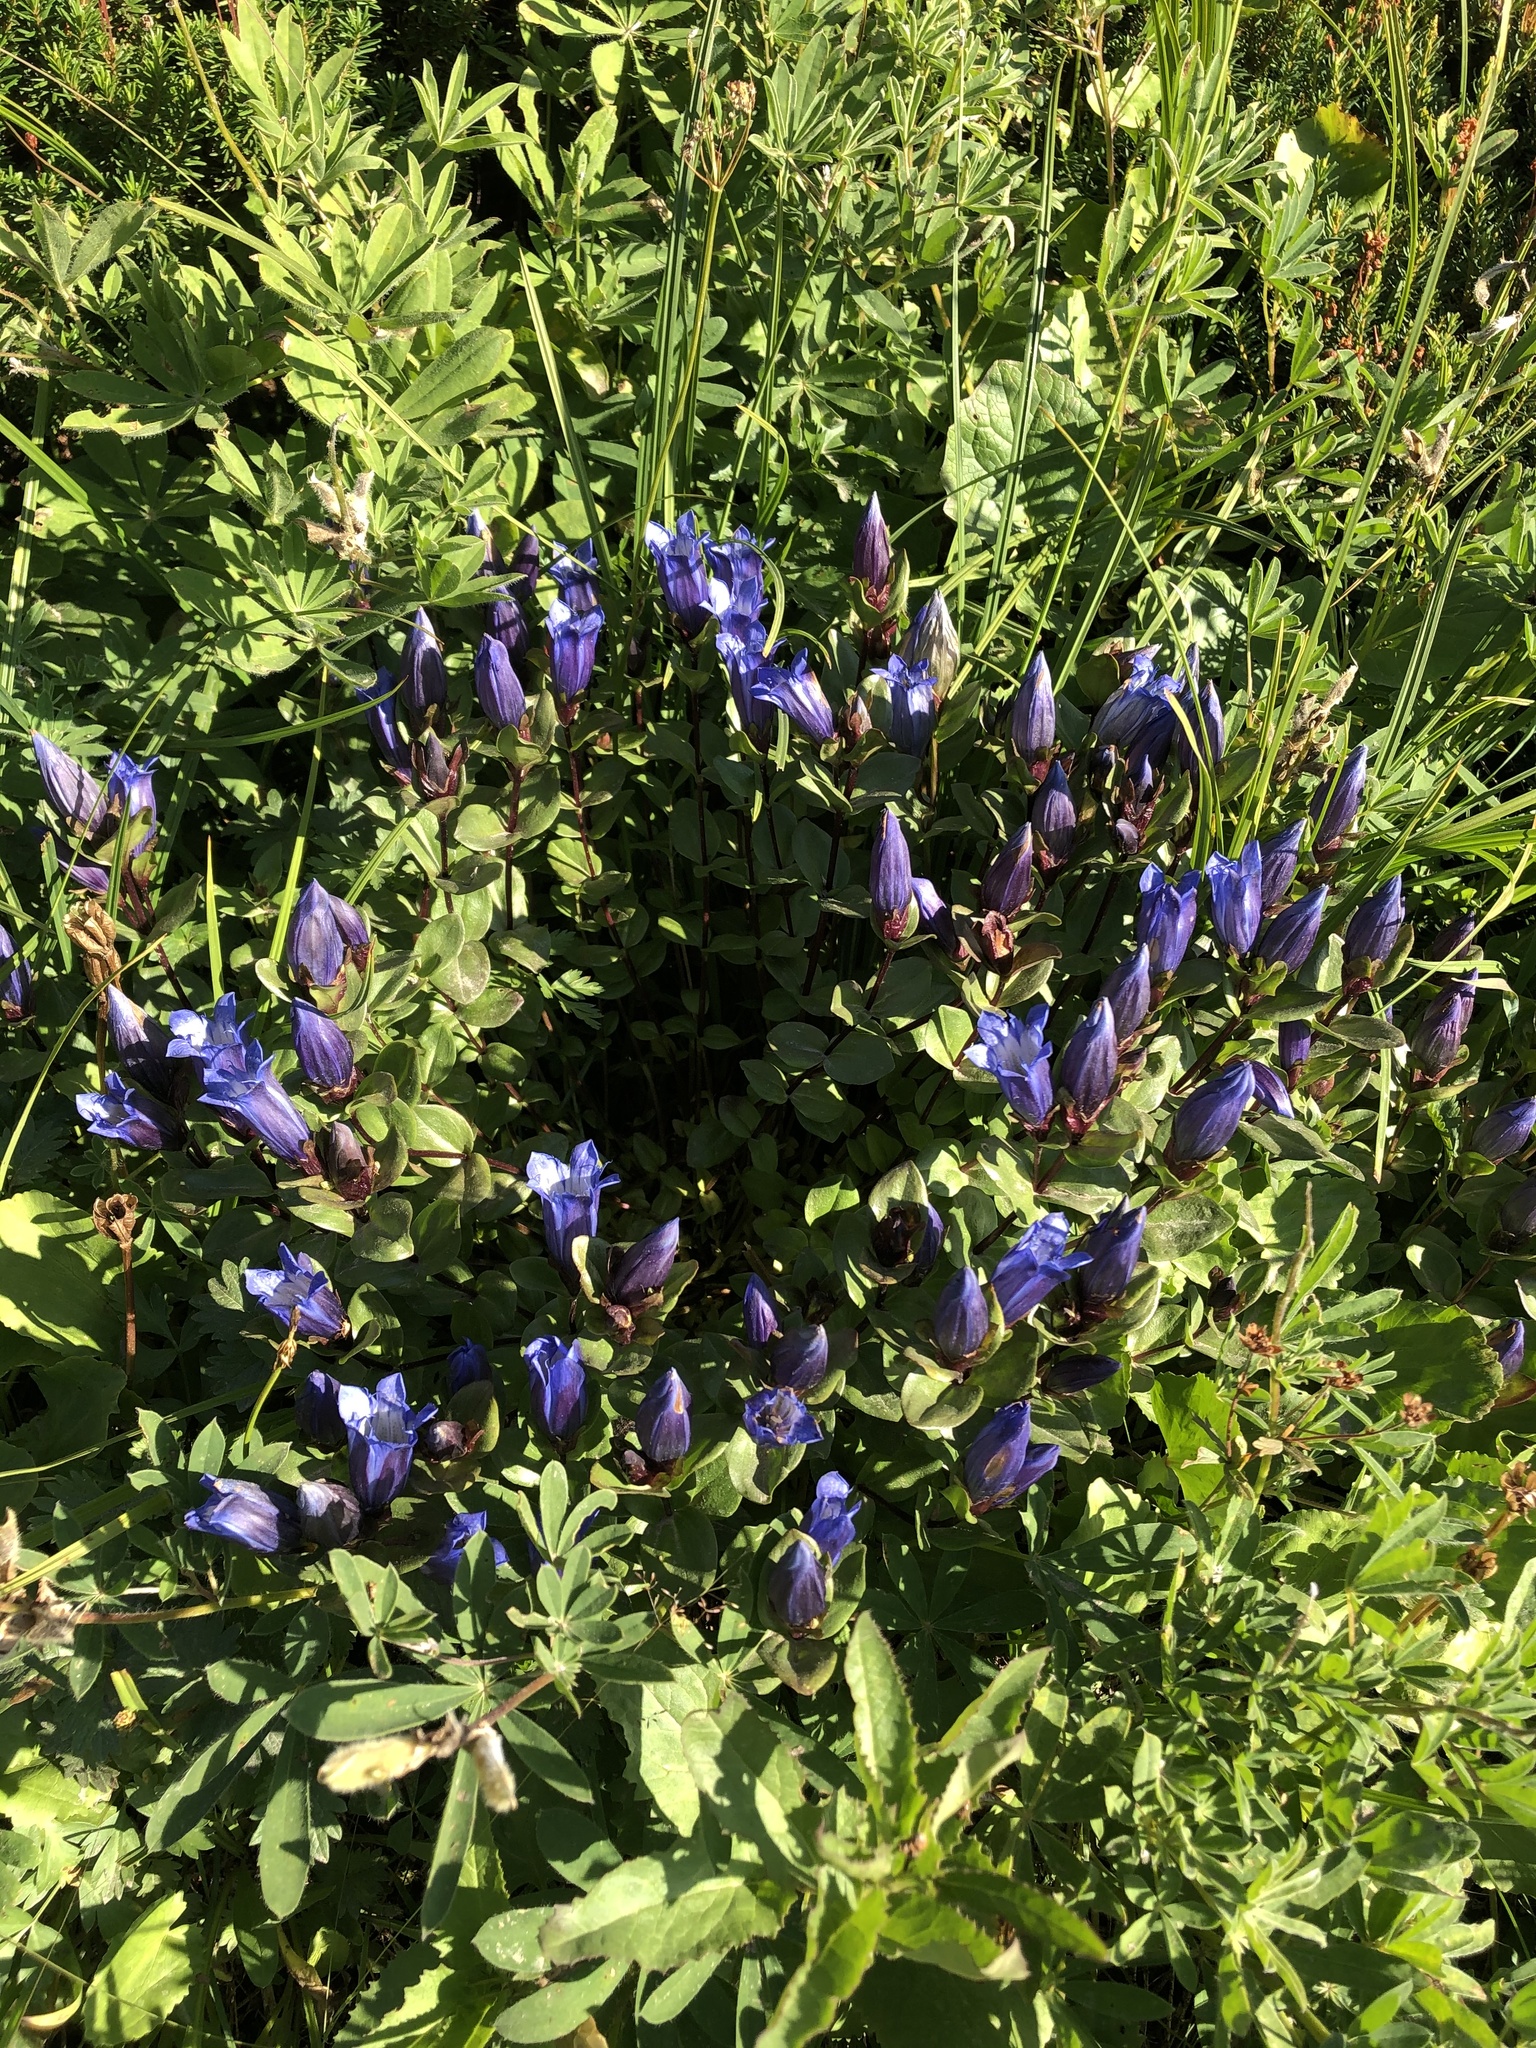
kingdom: Plantae
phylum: Tracheophyta
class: Magnoliopsida
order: Gentianales
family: Gentianaceae
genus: Gentiana
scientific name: Gentiana calycosa
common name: Rainier pleated gentian
